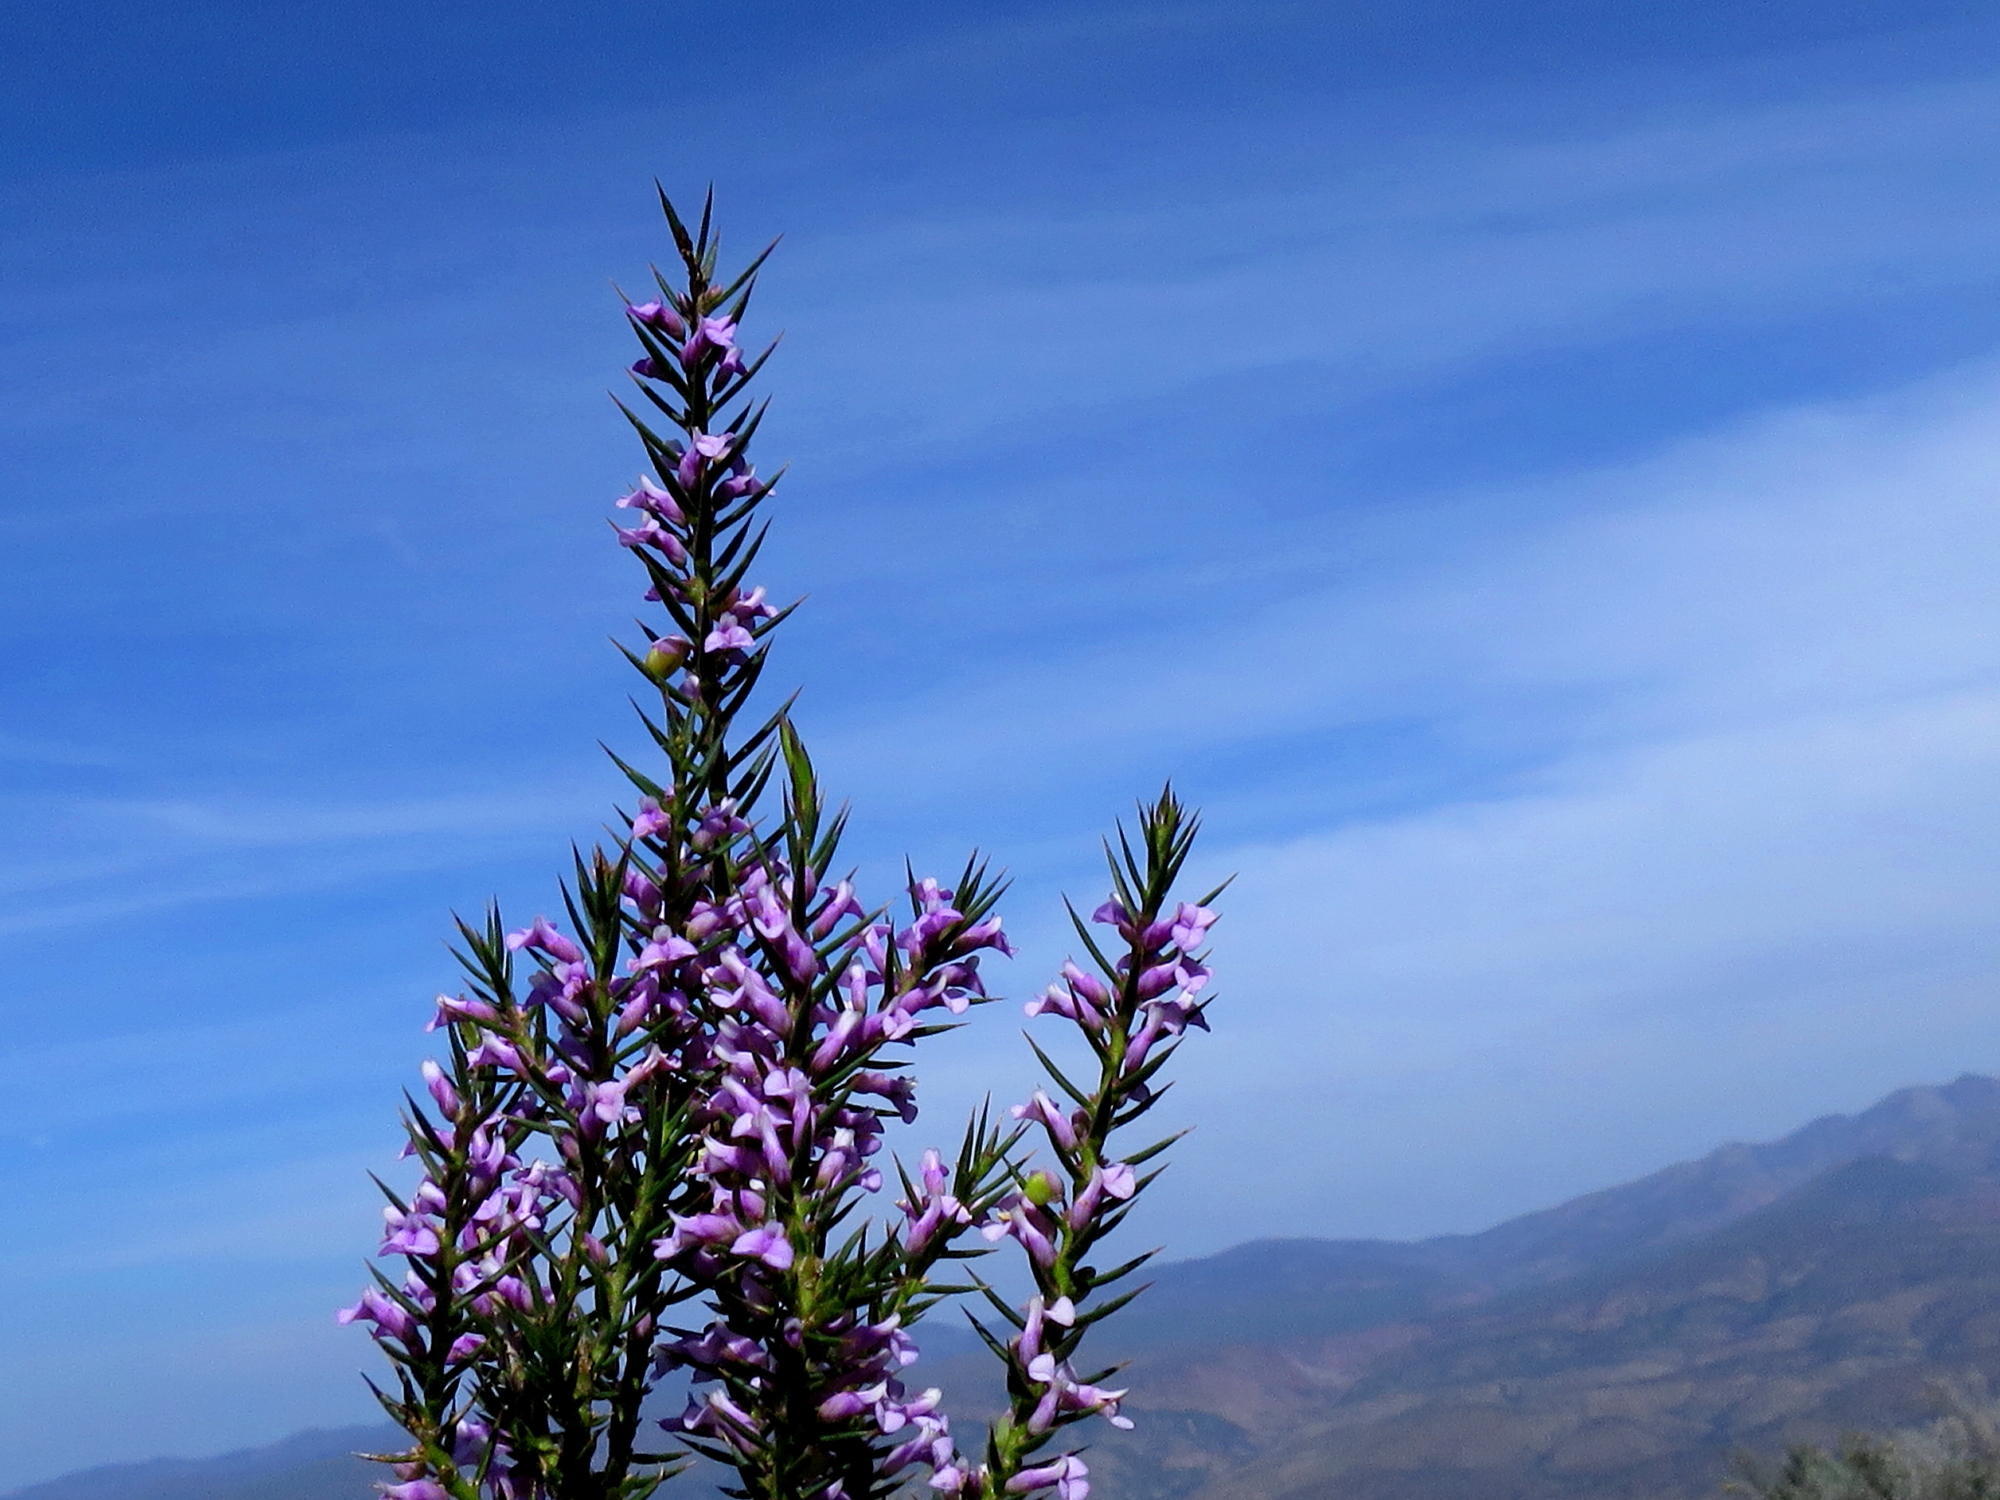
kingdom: Plantae
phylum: Tracheophyta
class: Magnoliopsida
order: Fabales
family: Polygalaceae
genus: Muraltia
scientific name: Muraltia juniperifolia
